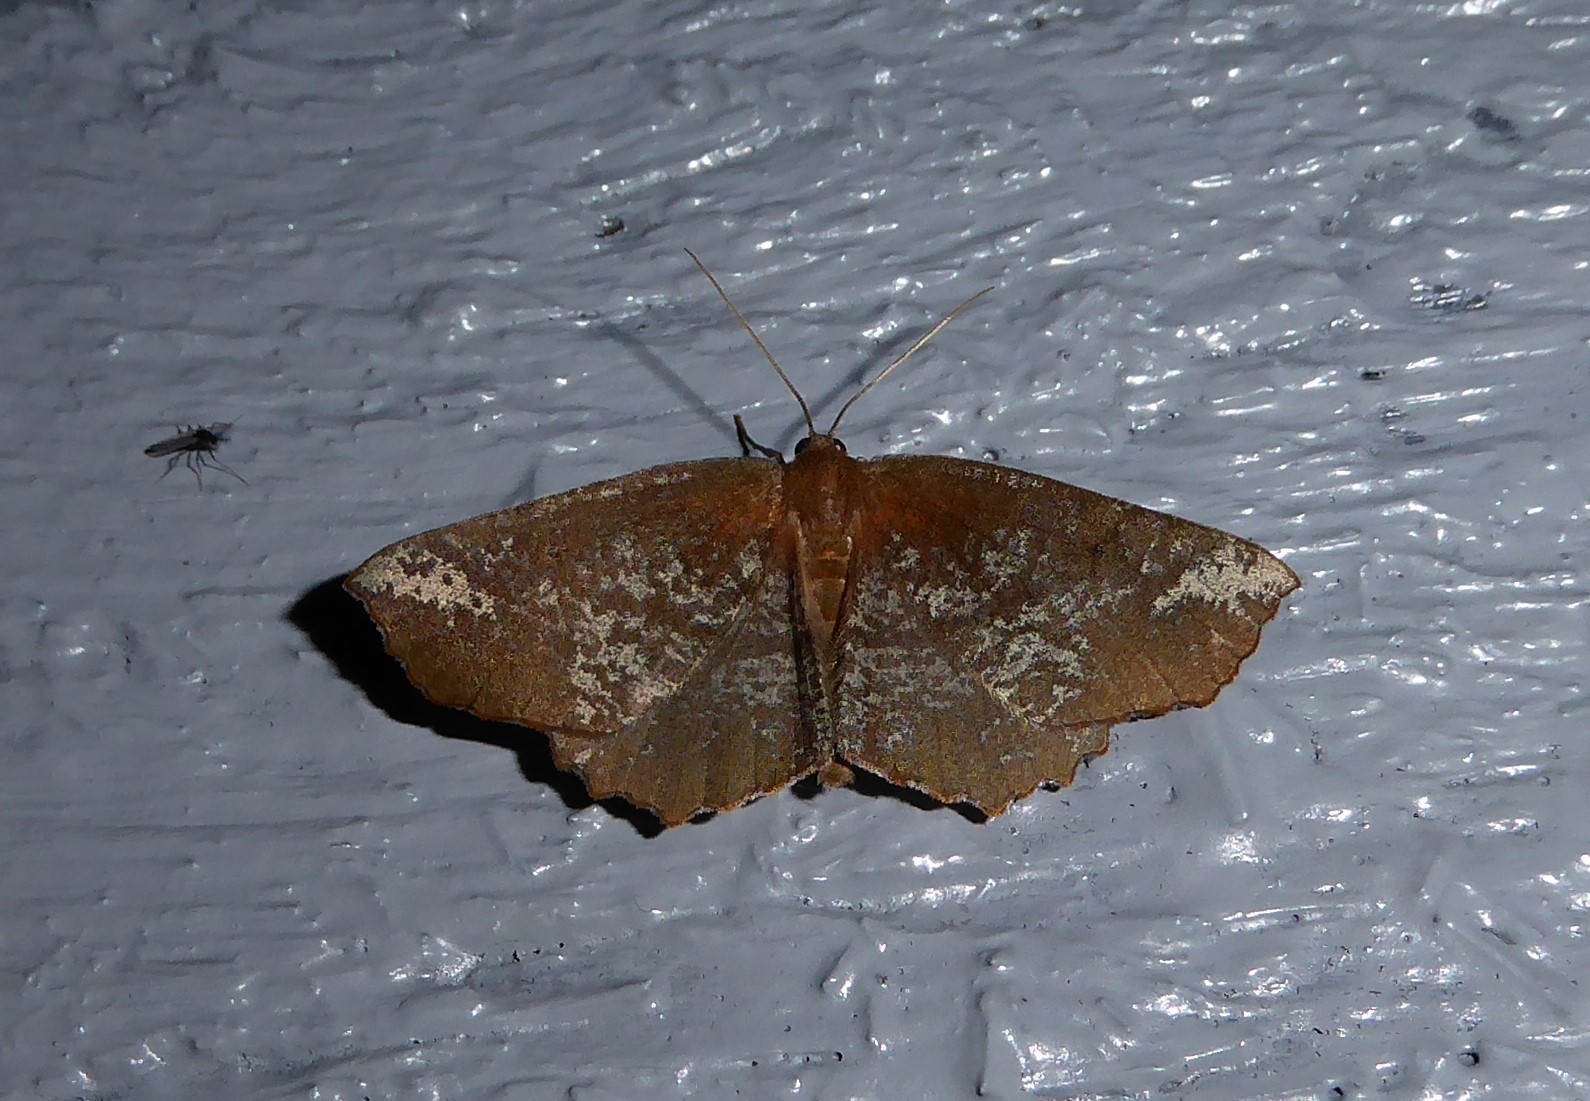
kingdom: Animalia
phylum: Arthropoda
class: Insecta
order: Lepidoptera
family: Geometridae
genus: Xyridacma
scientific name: Xyridacma ustaria
